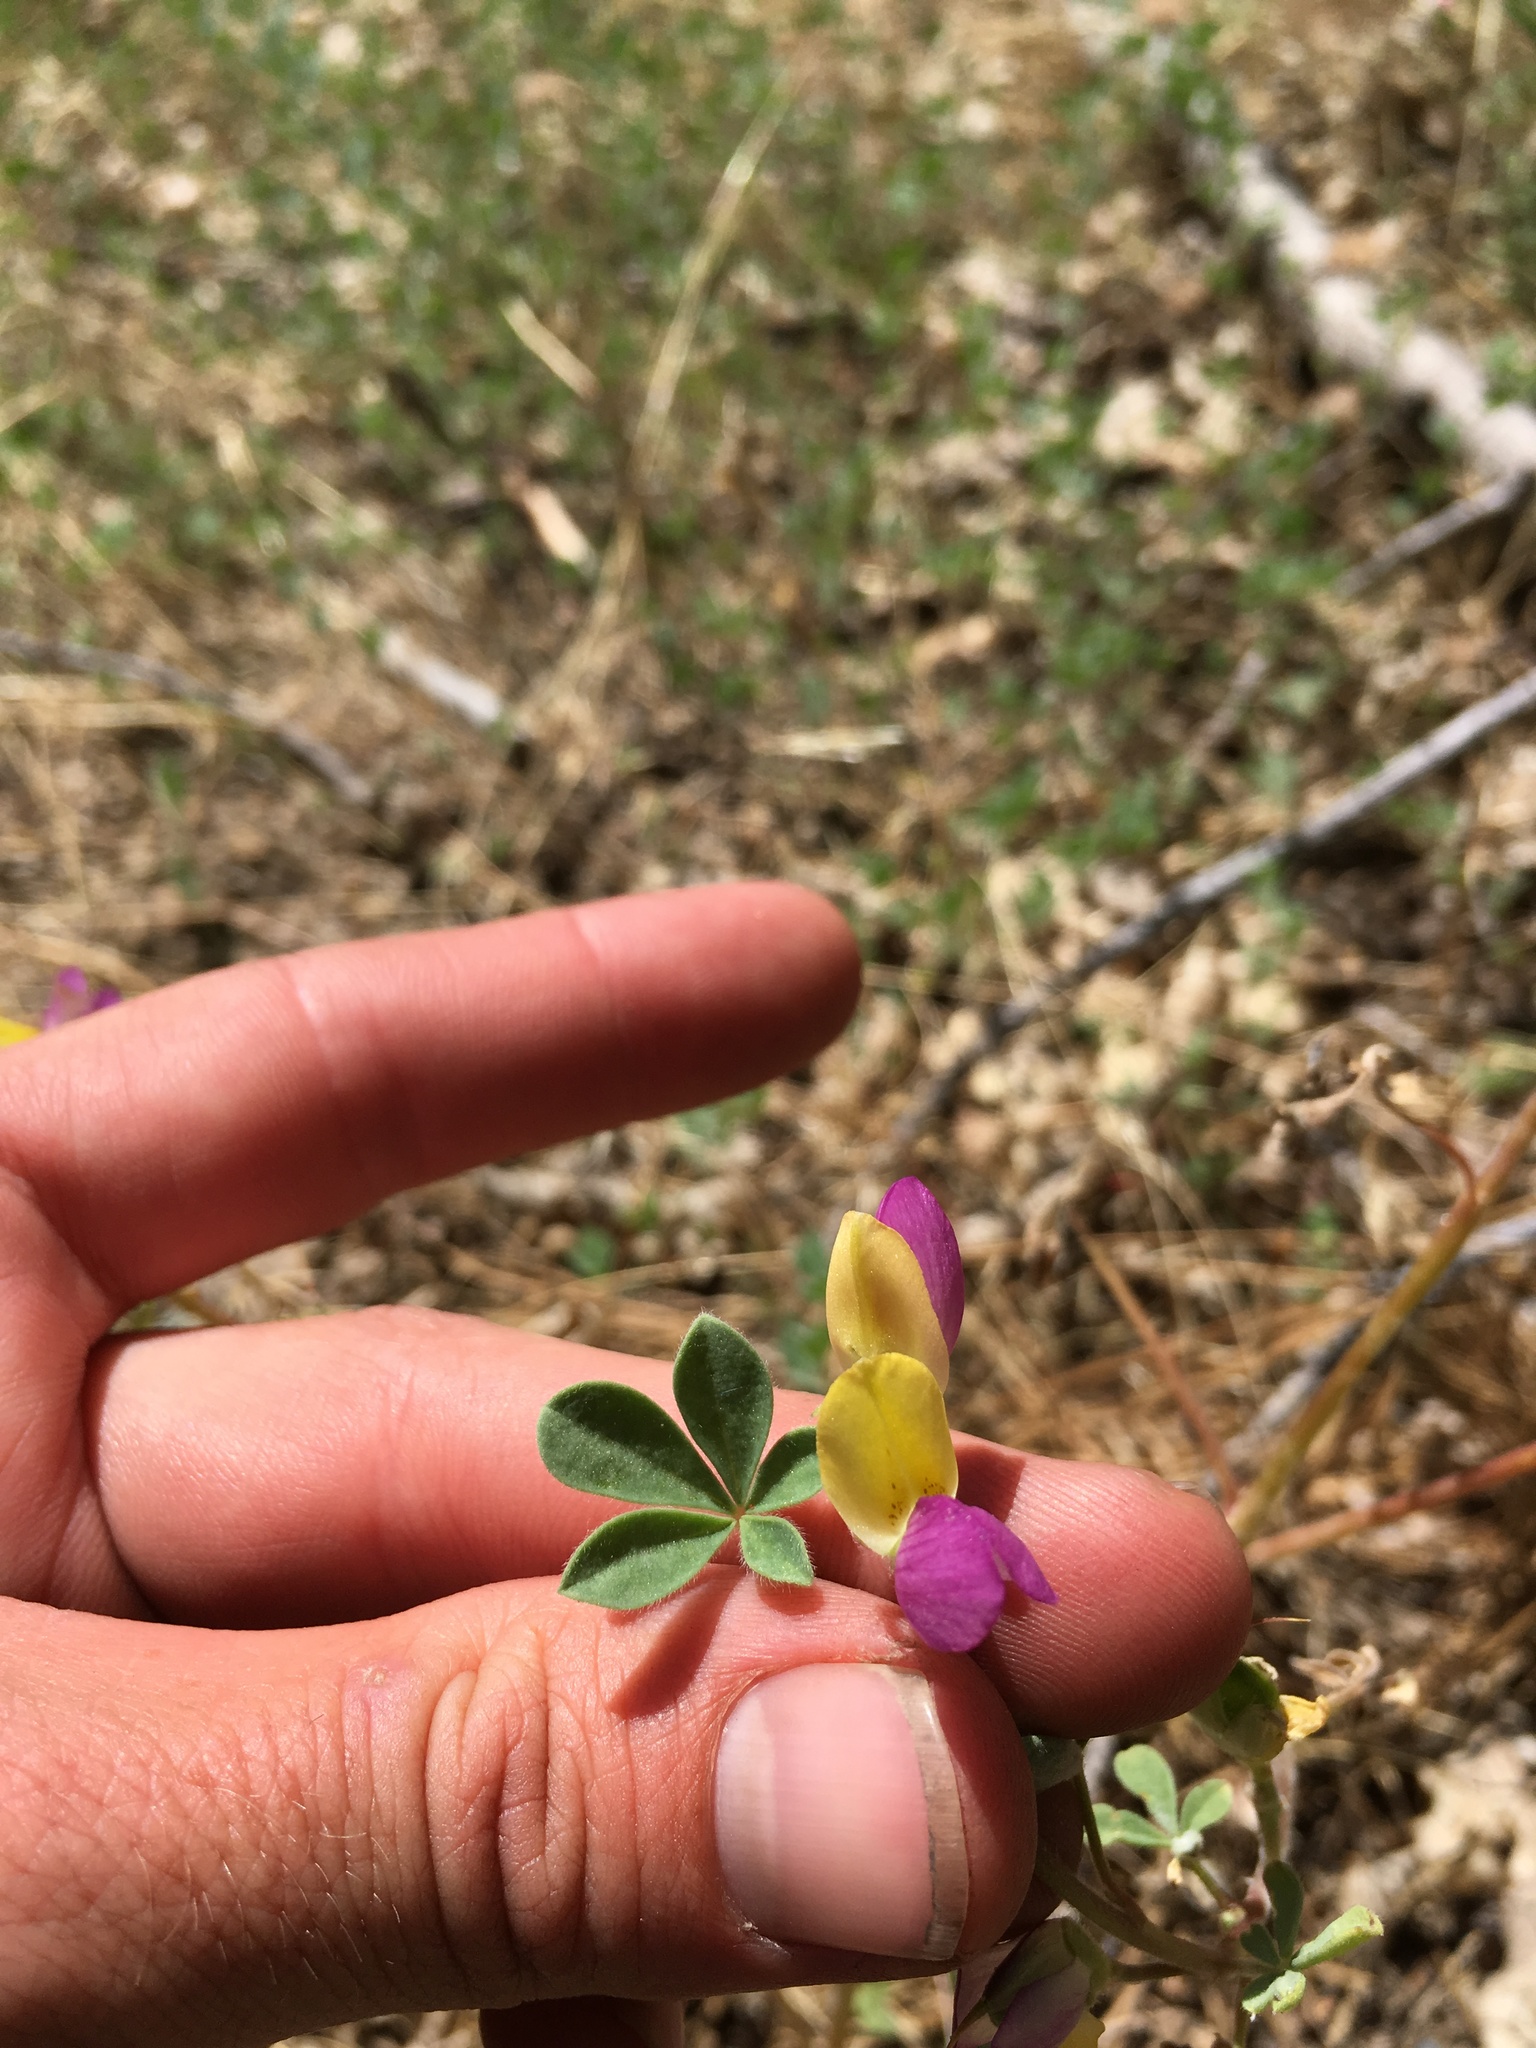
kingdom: Plantae
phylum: Tracheophyta
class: Magnoliopsida
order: Fabales
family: Fabaceae
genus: Lupinus
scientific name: Lupinus stiversii
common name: Harlequin lupine
